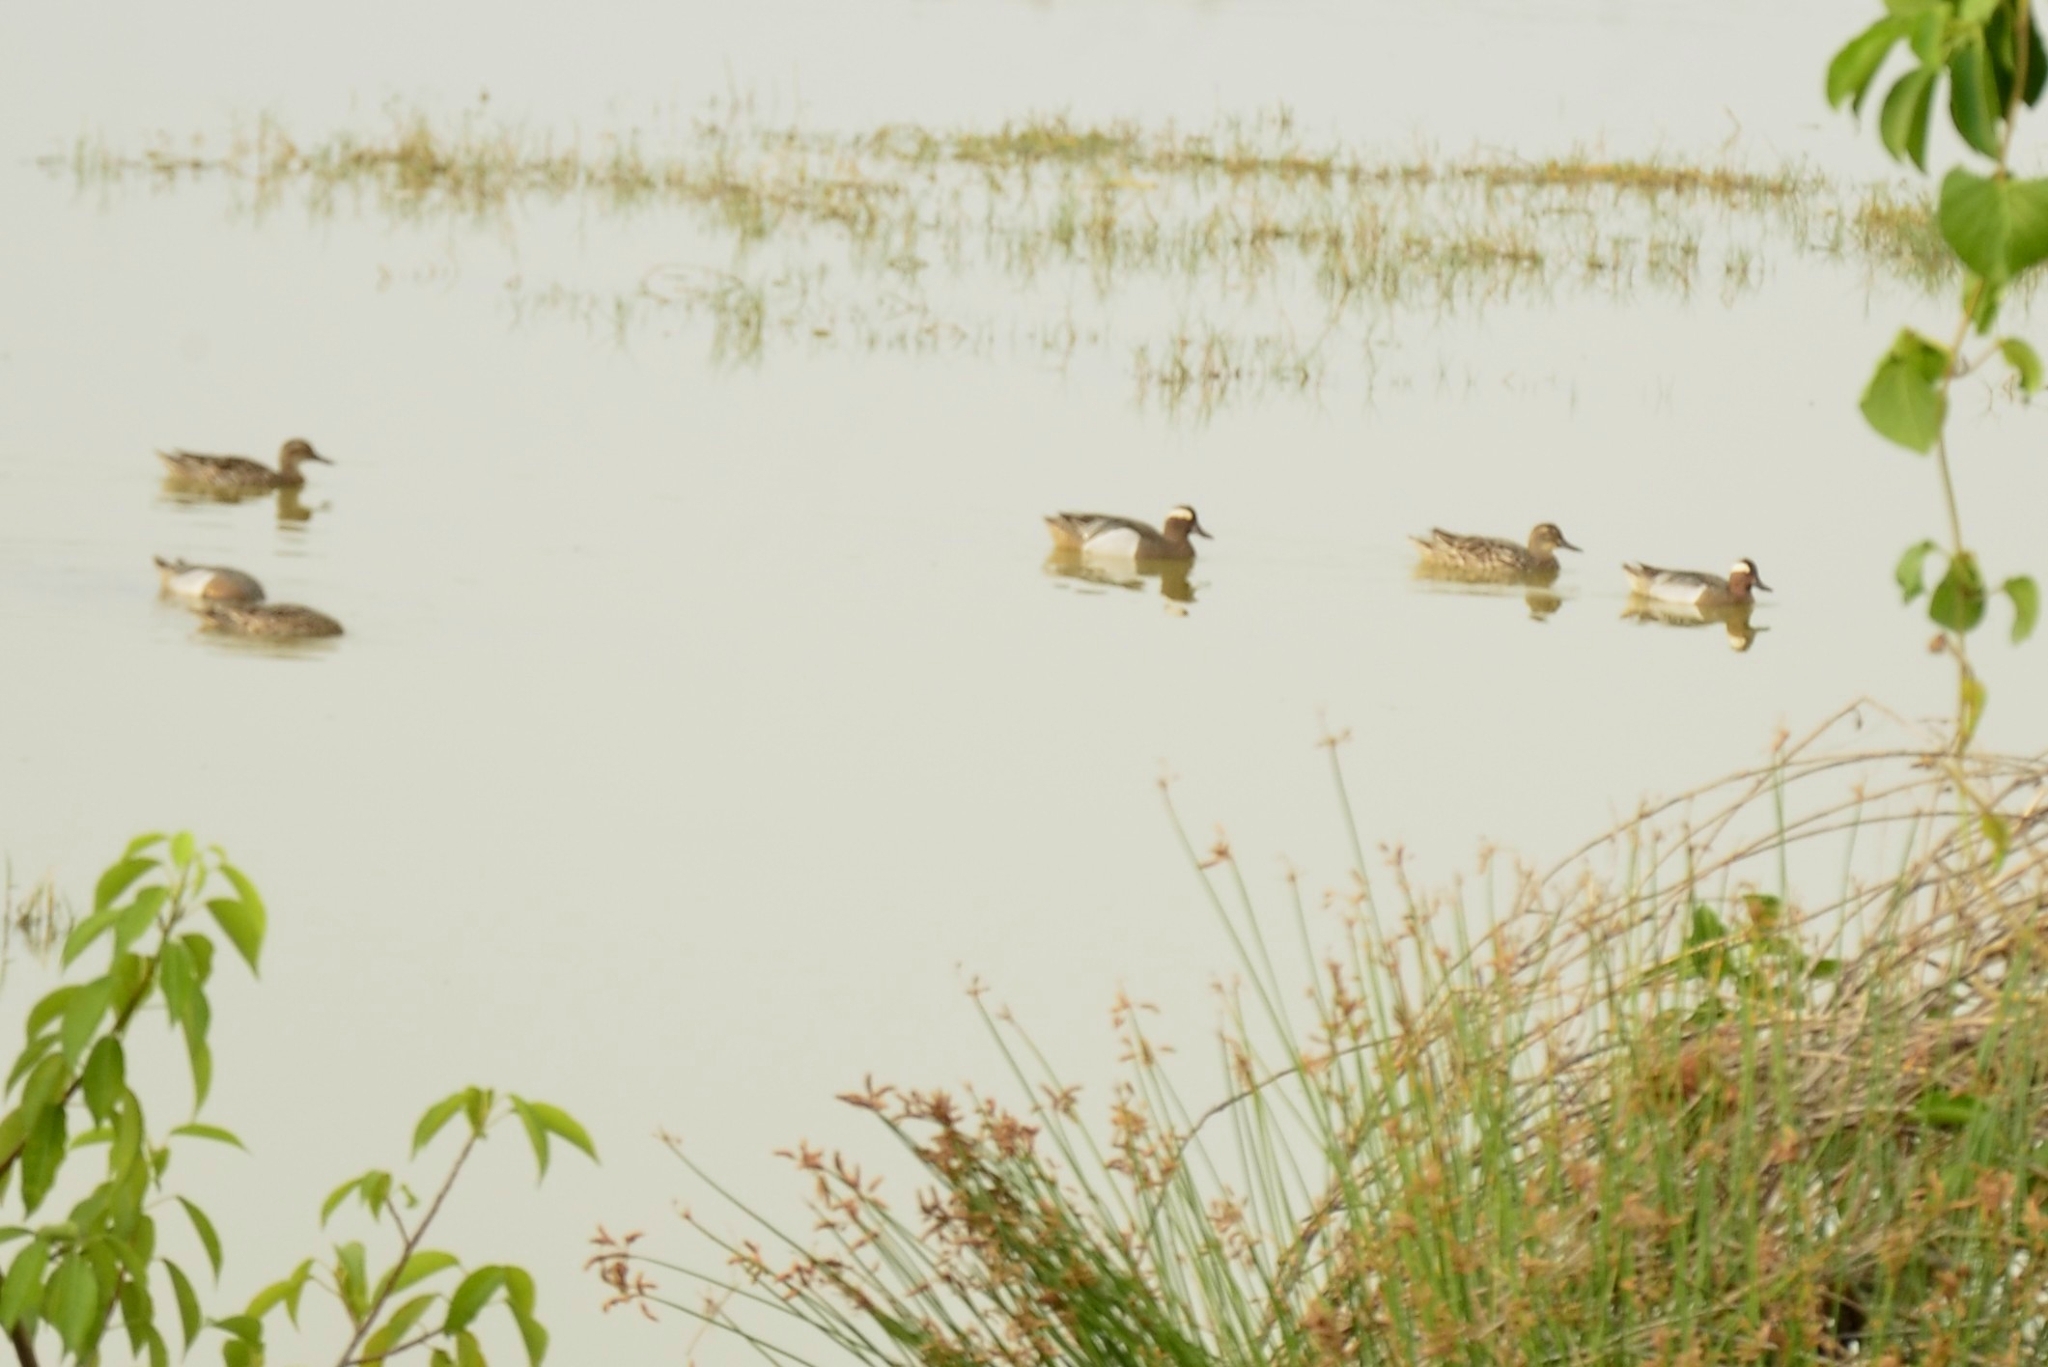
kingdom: Animalia
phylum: Chordata
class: Aves
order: Anseriformes
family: Anatidae
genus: Spatula
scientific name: Spatula querquedula
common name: Garganey
